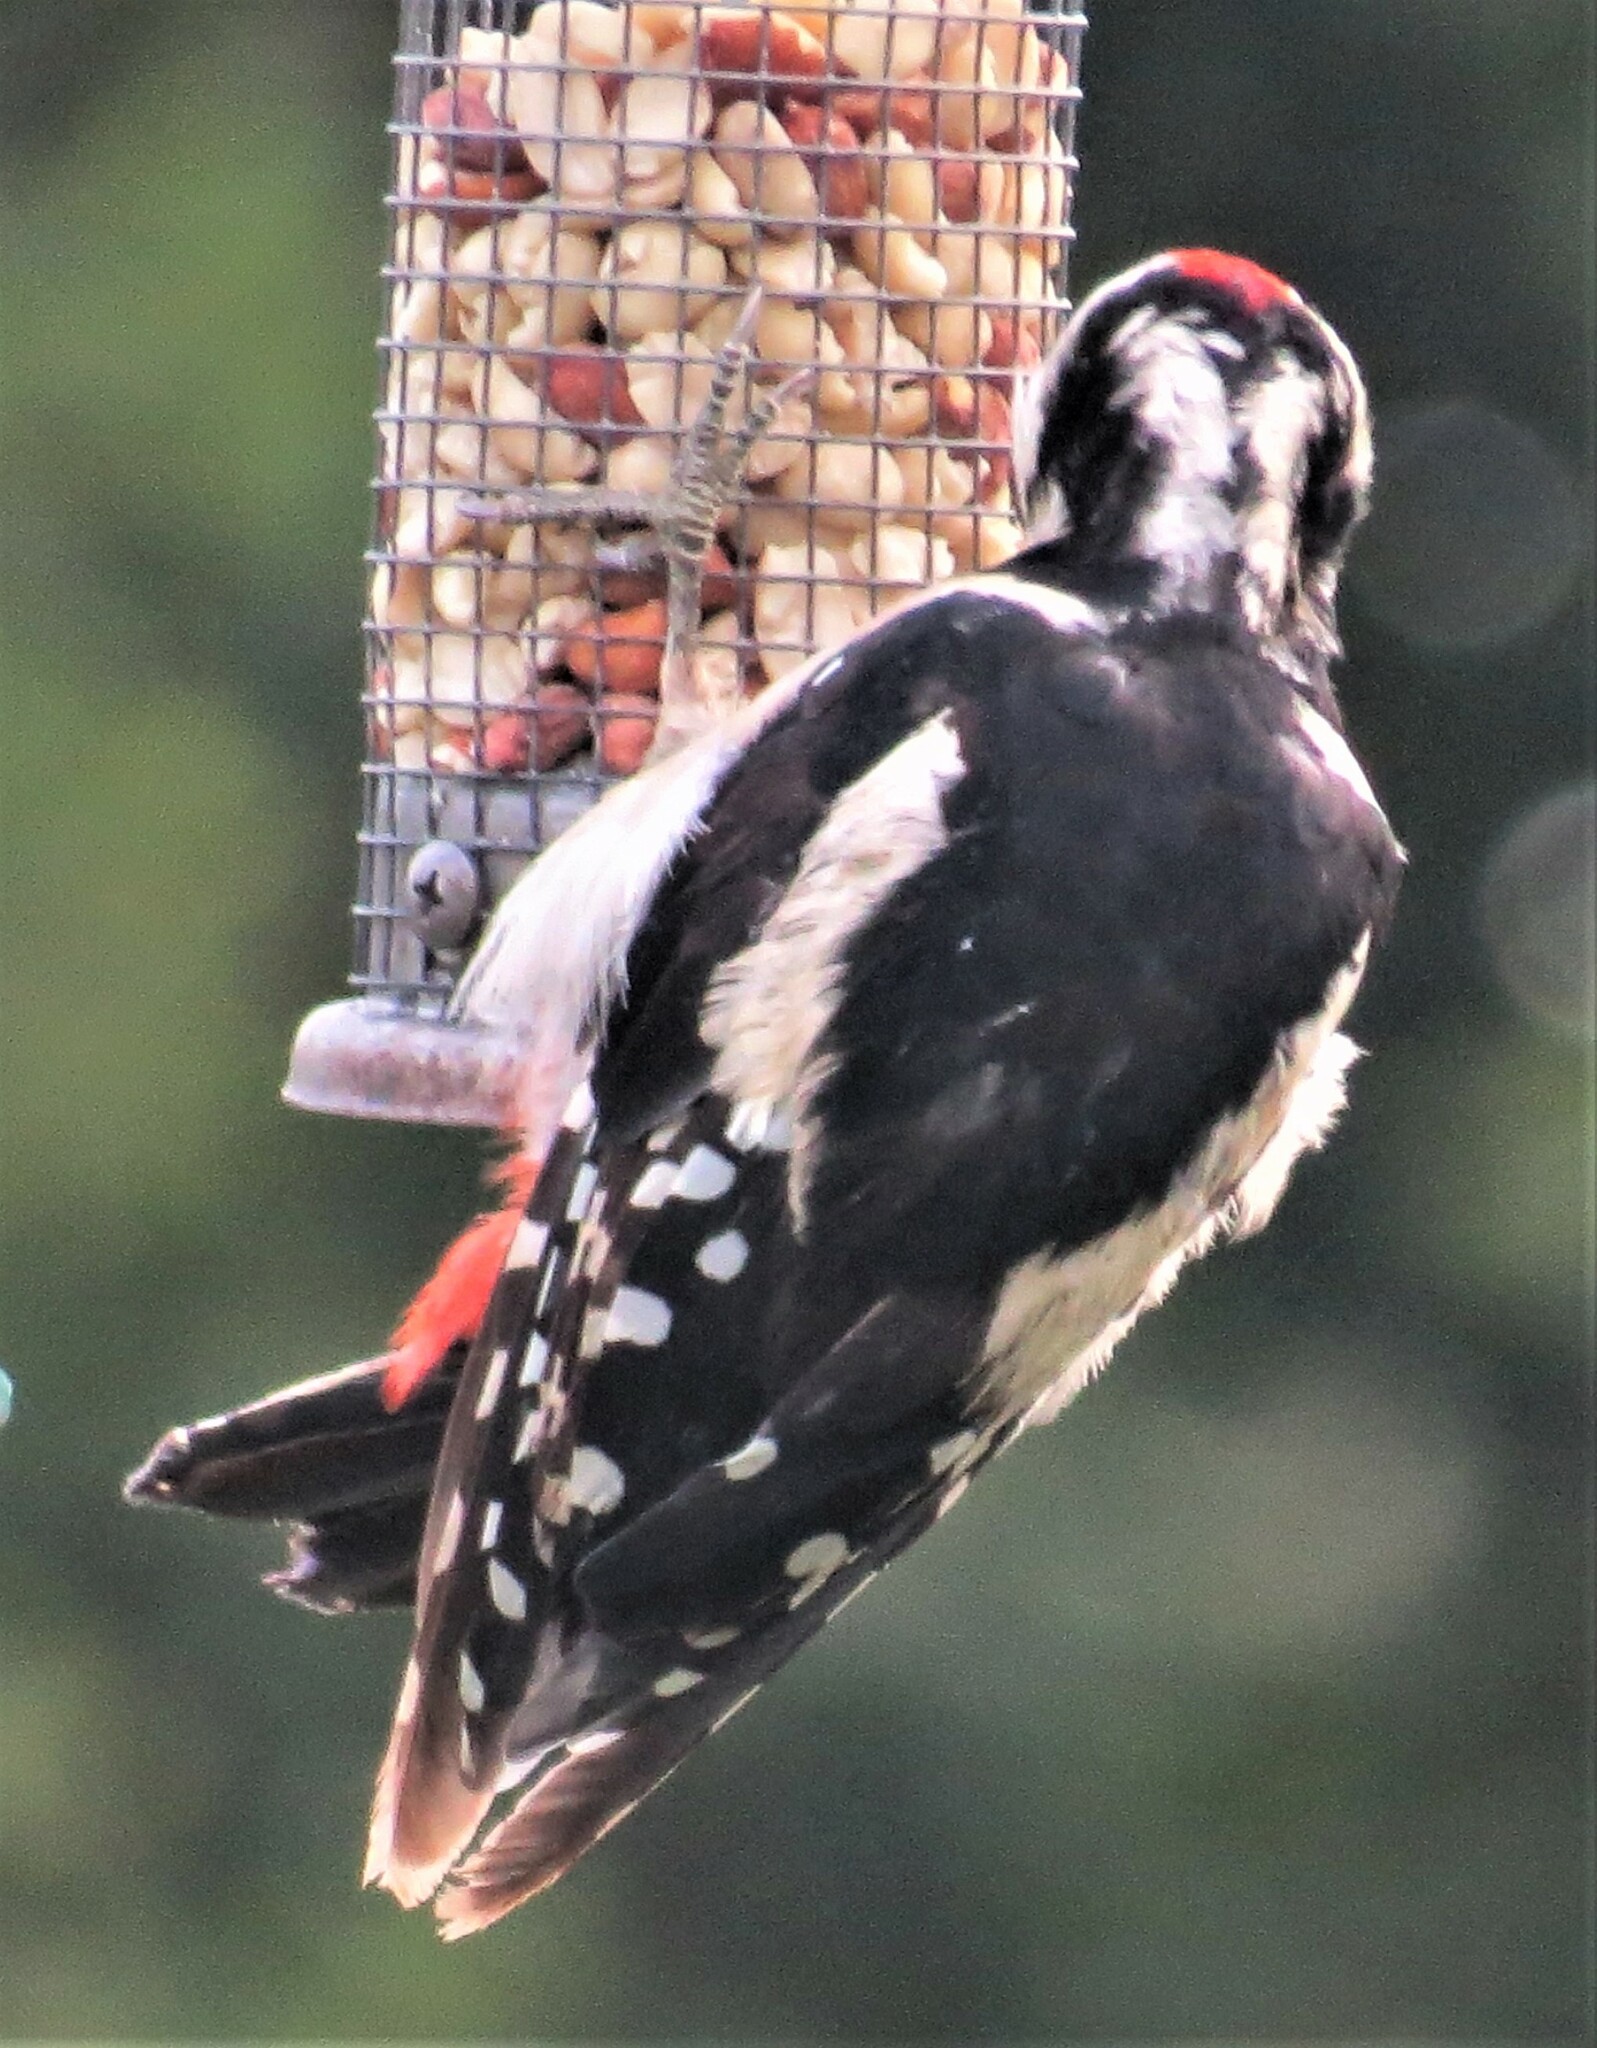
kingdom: Animalia
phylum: Chordata
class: Aves
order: Piciformes
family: Picidae
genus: Dendrocopos
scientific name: Dendrocopos major
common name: Great spotted woodpecker
